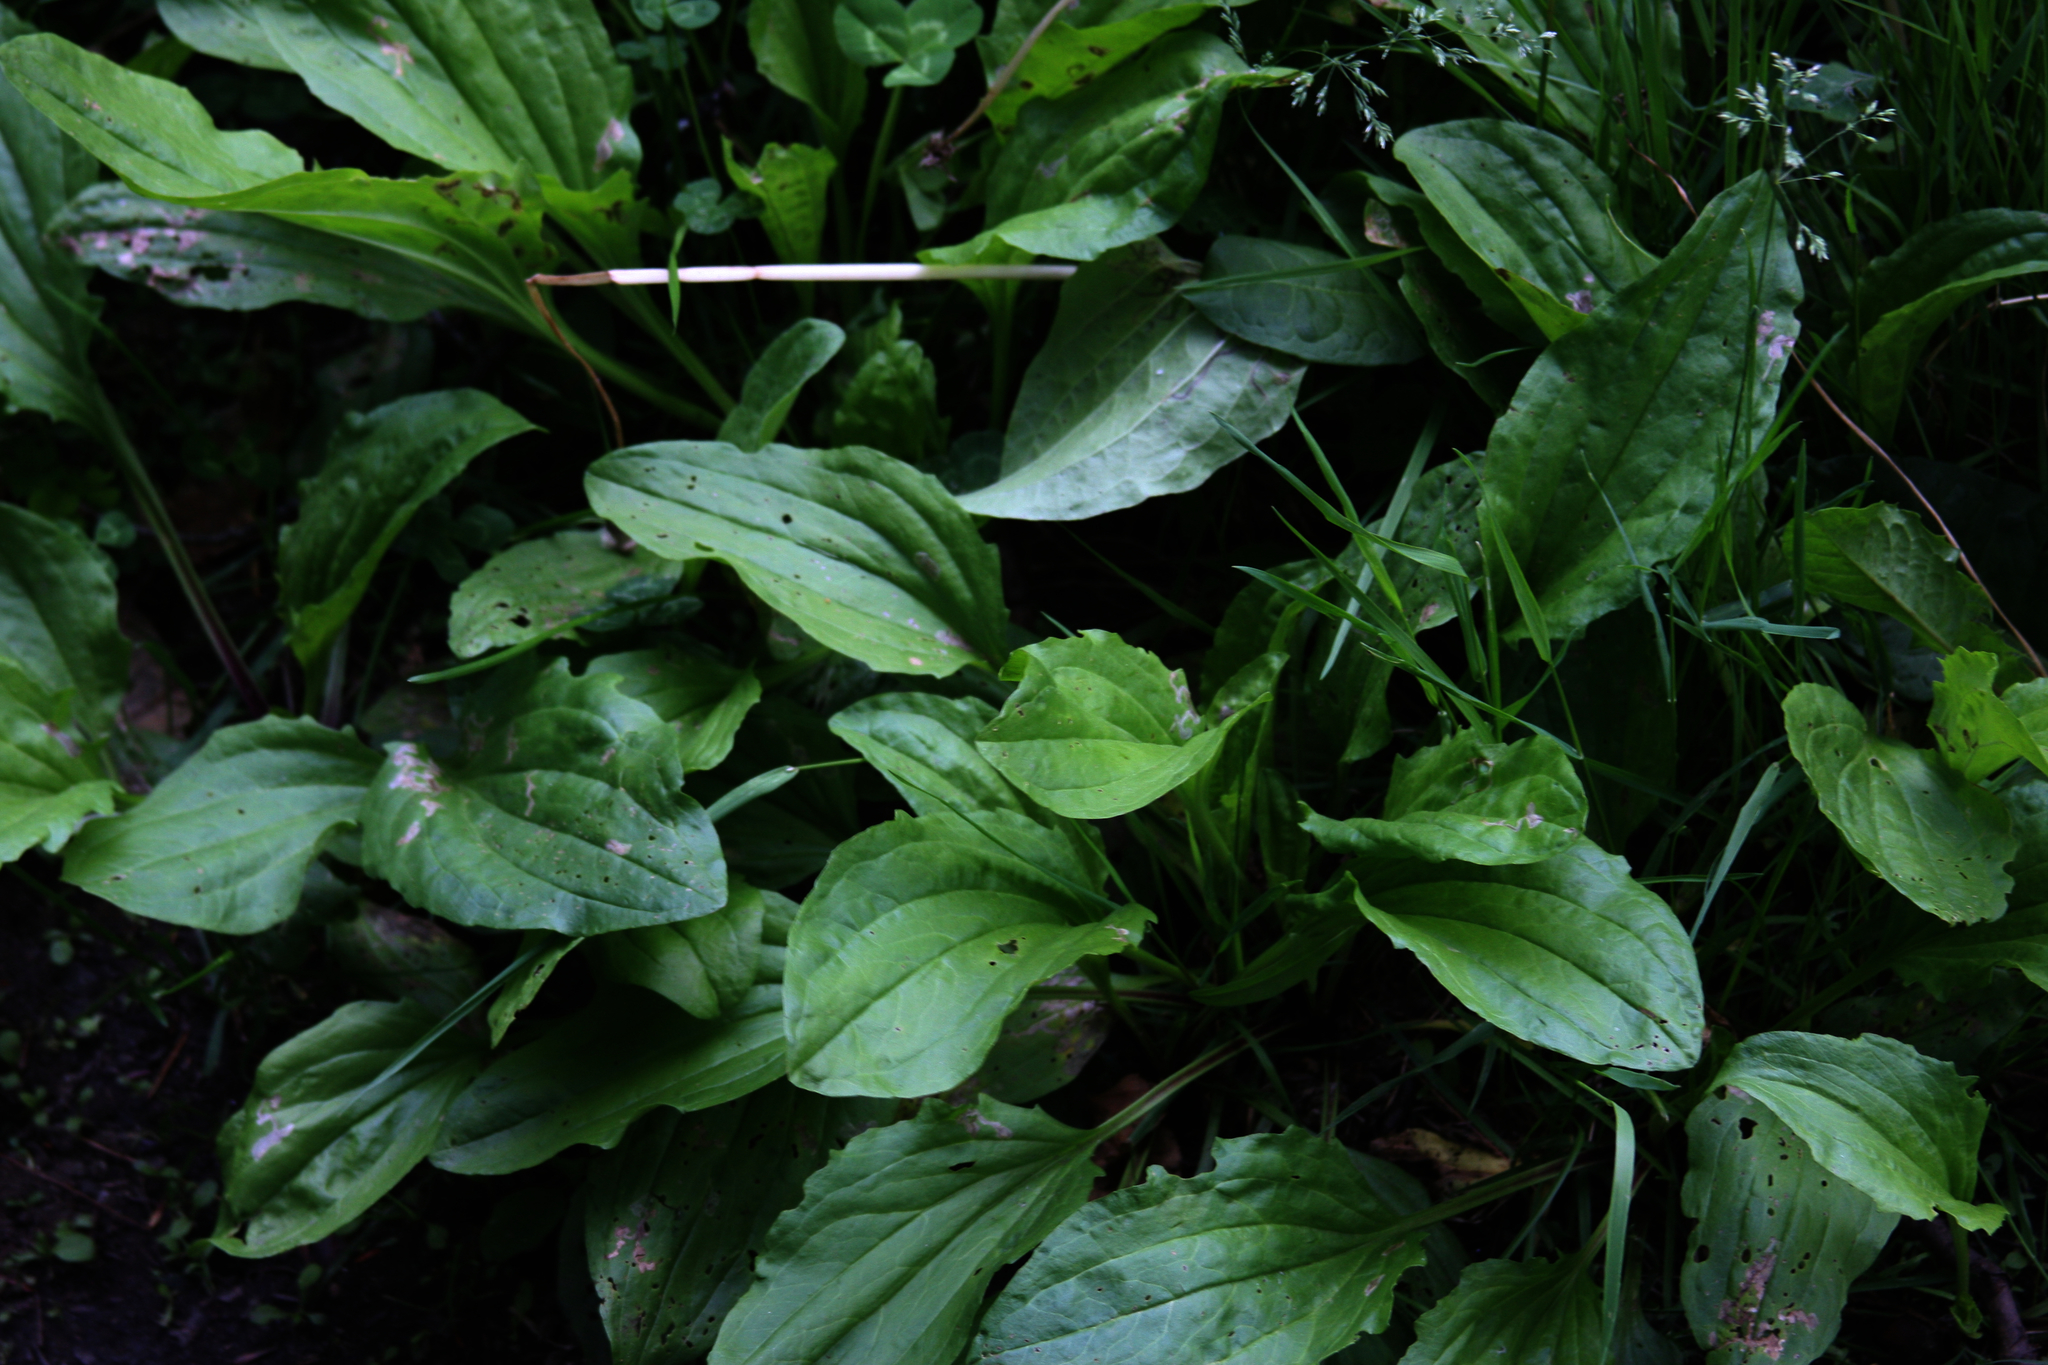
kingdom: Plantae
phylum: Tracheophyta
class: Magnoliopsida
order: Lamiales
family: Plantaginaceae
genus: Plantago
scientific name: Plantago rugelii
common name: American plantain
